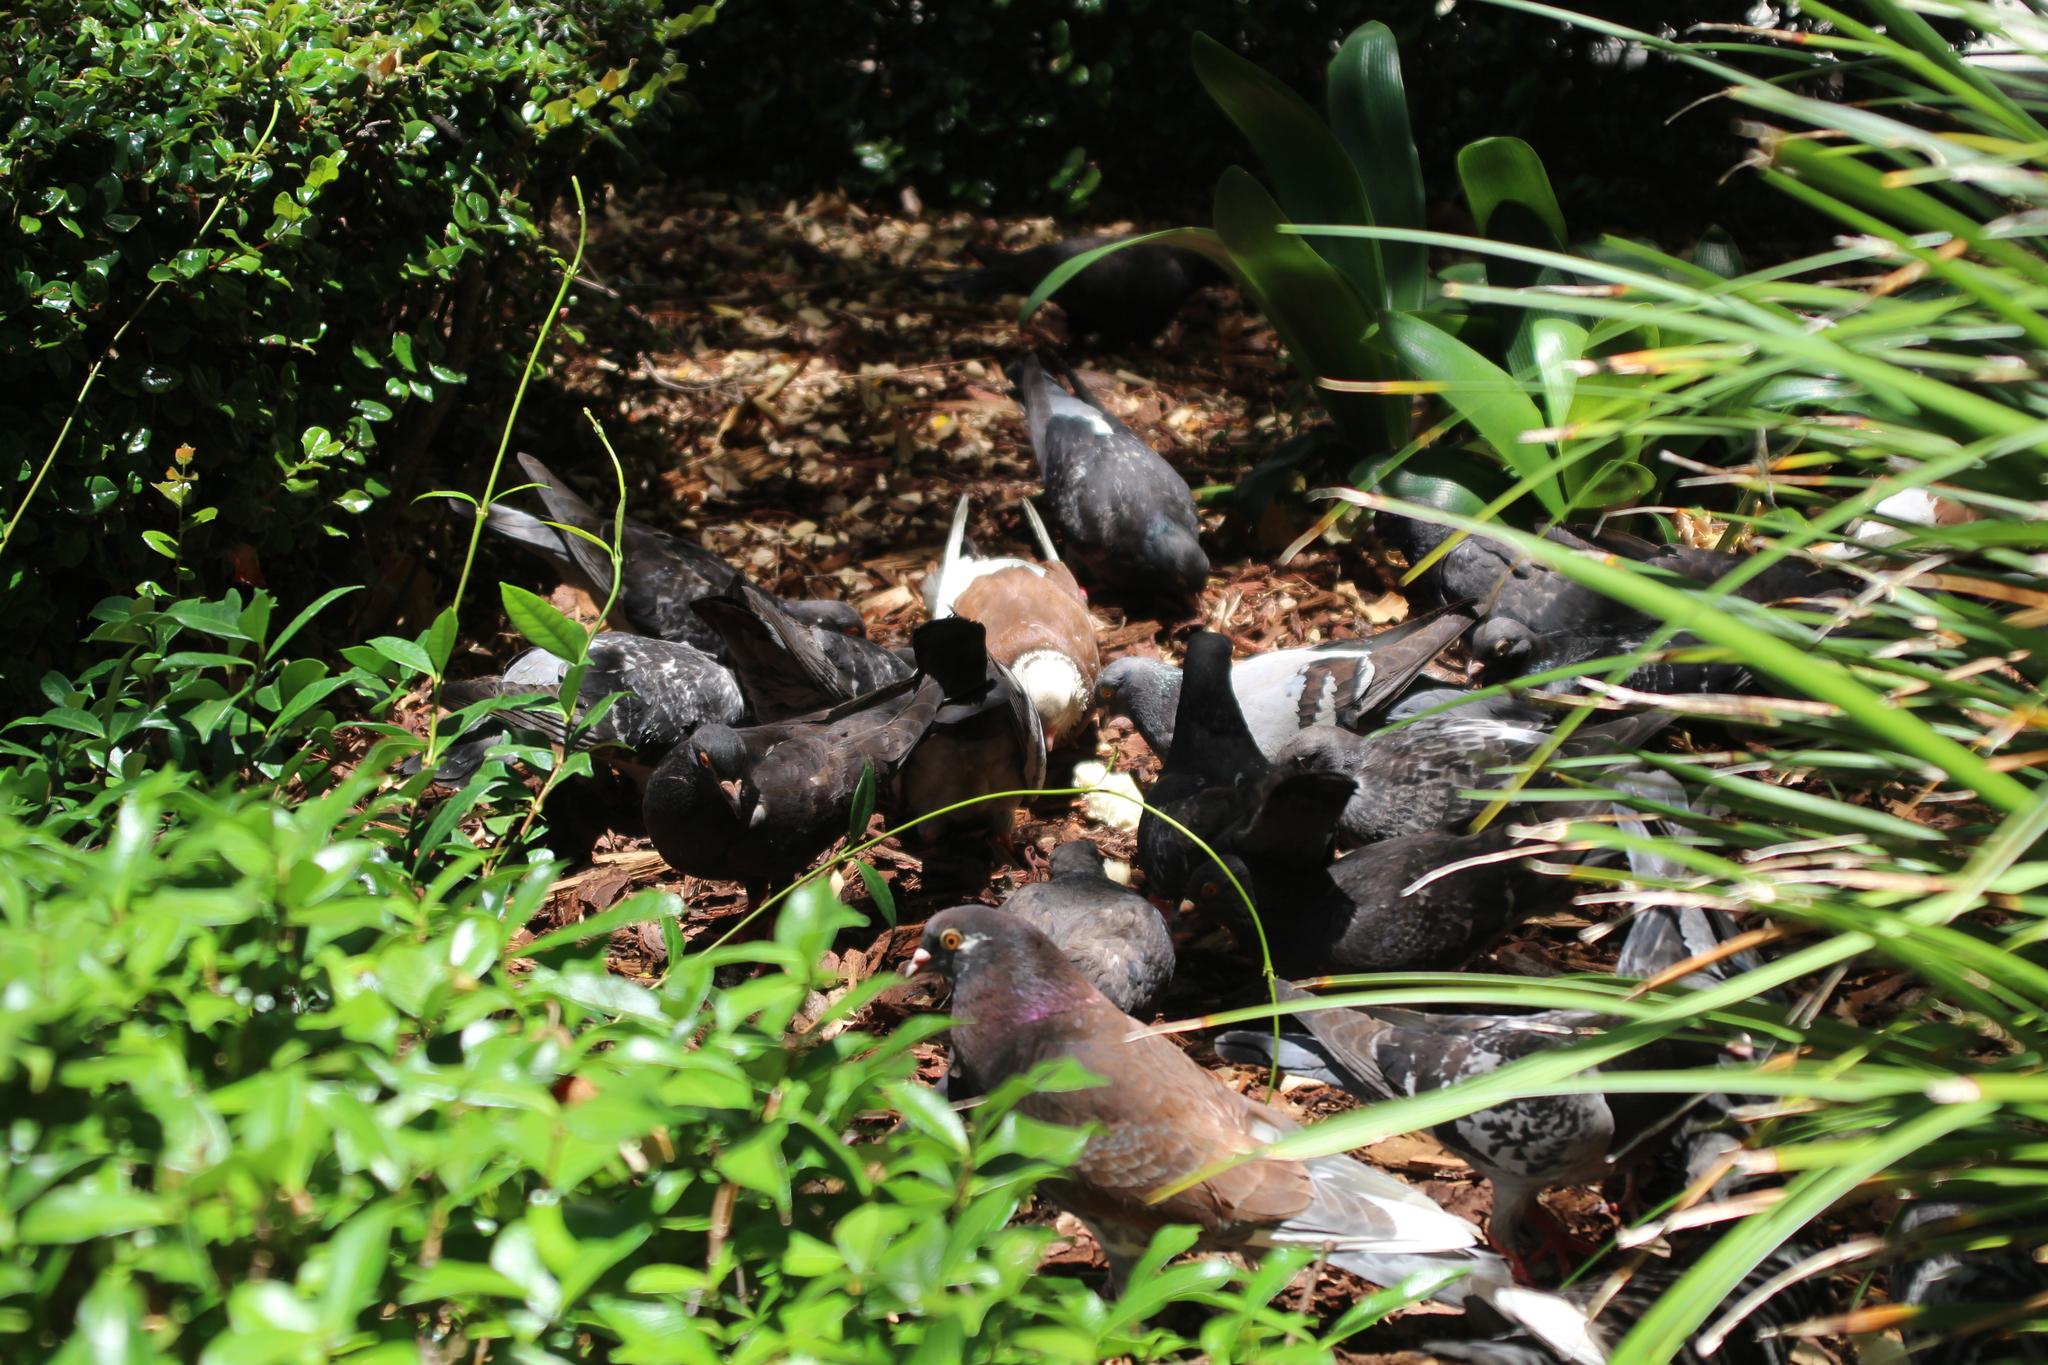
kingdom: Animalia
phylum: Chordata
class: Aves
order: Columbiformes
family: Columbidae
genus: Columba
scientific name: Columba livia
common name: Rock pigeon
